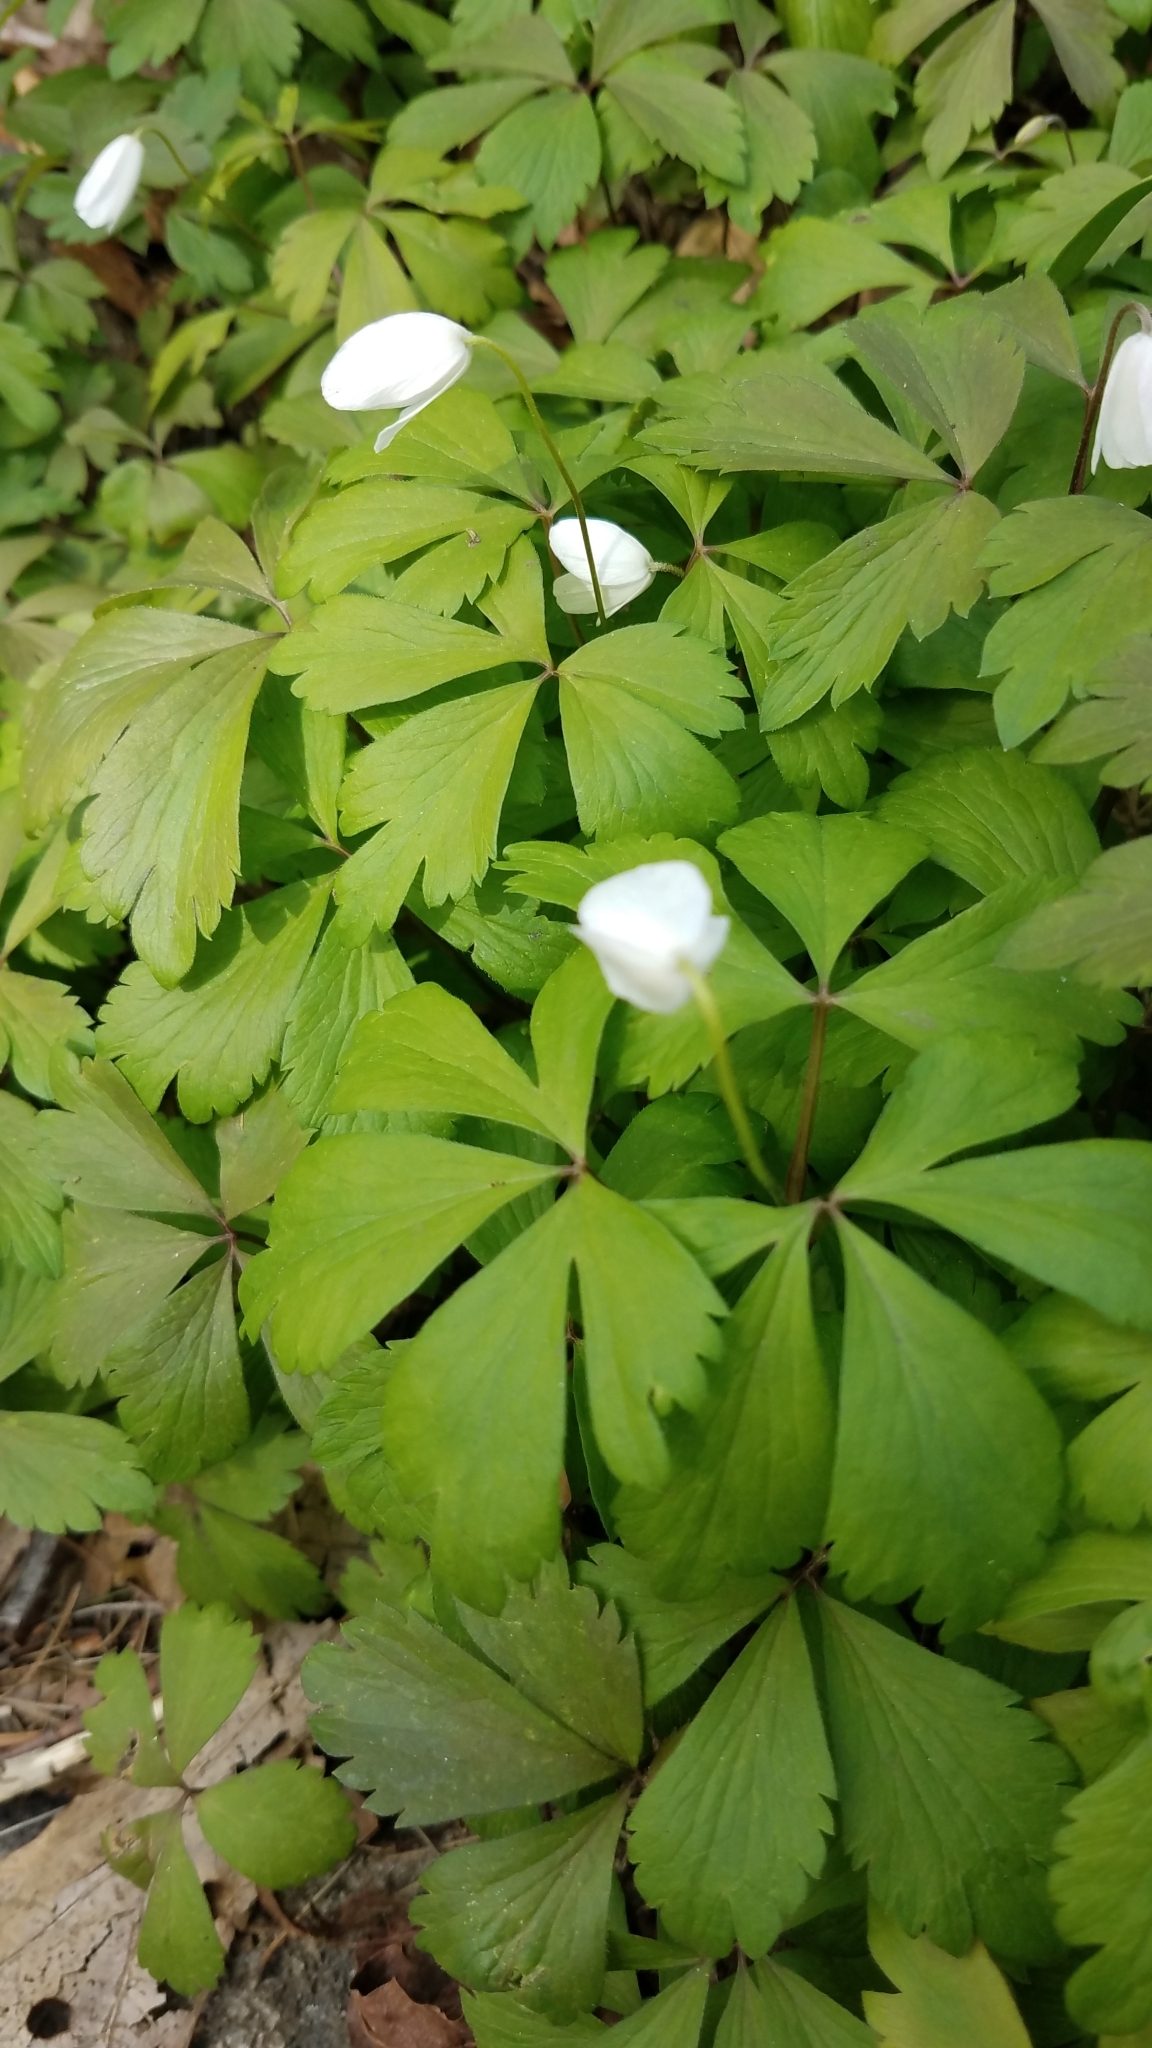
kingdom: Plantae
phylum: Tracheophyta
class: Magnoliopsida
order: Ranunculales
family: Ranunculaceae
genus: Anemone
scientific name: Anemone quinquefolia
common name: Wood anemone
